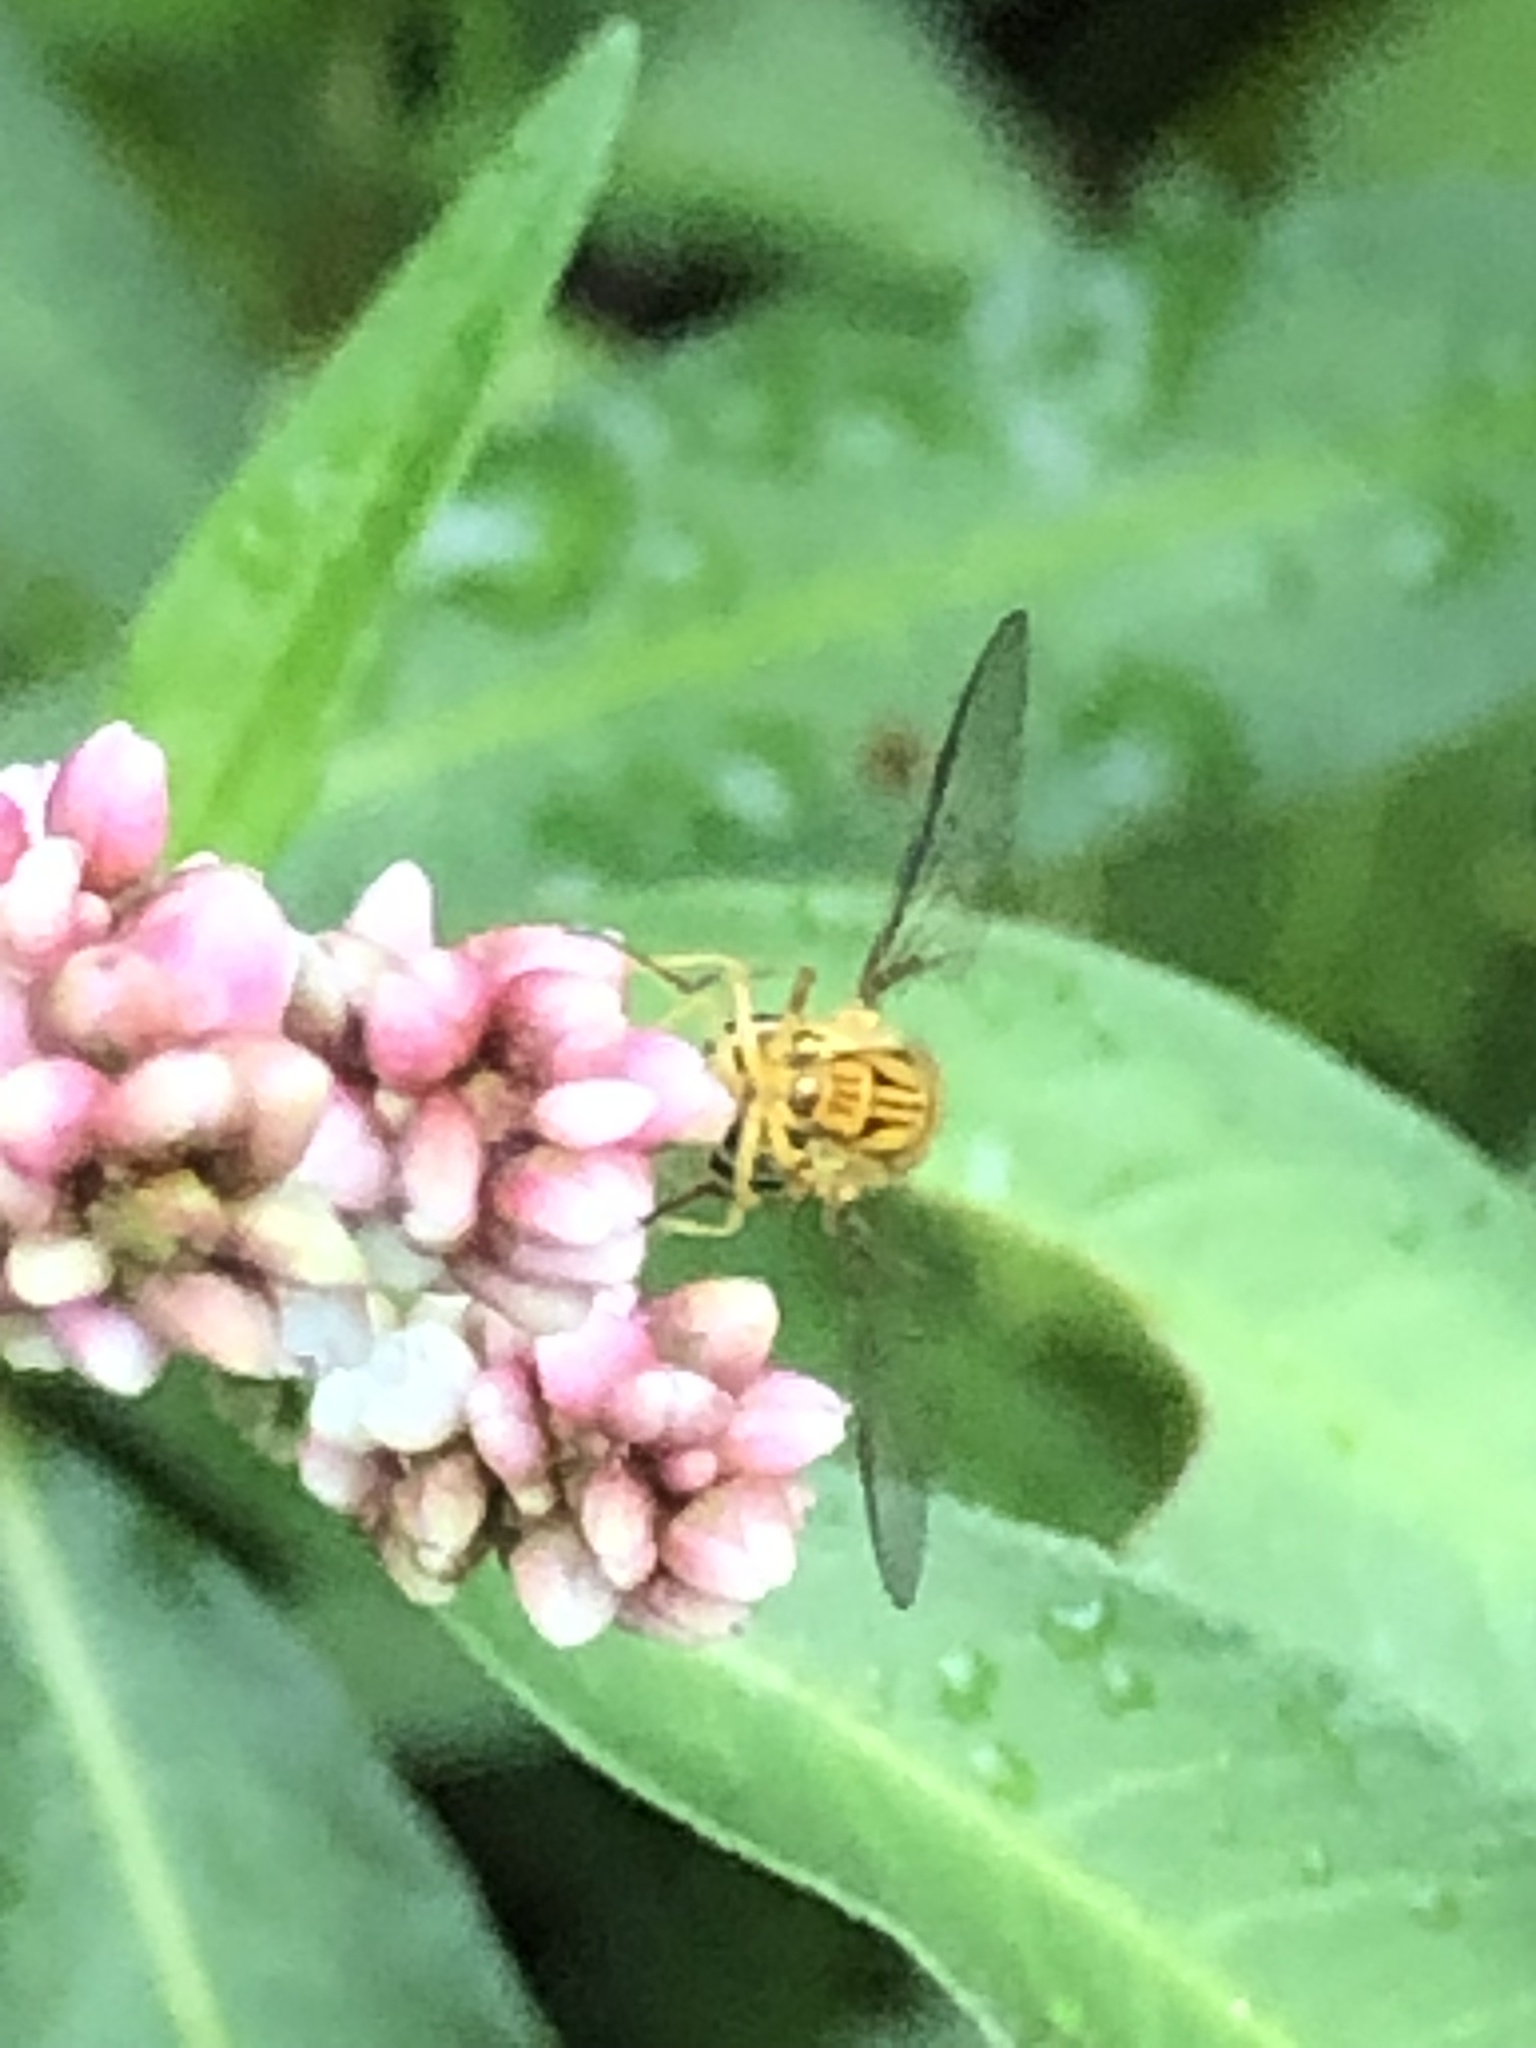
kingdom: Animalia
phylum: Arthropoda
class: Insecta
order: Diptera
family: Syrphidae
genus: Allograpta
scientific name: Allograpta obliqua
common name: Common oblique syrphid
